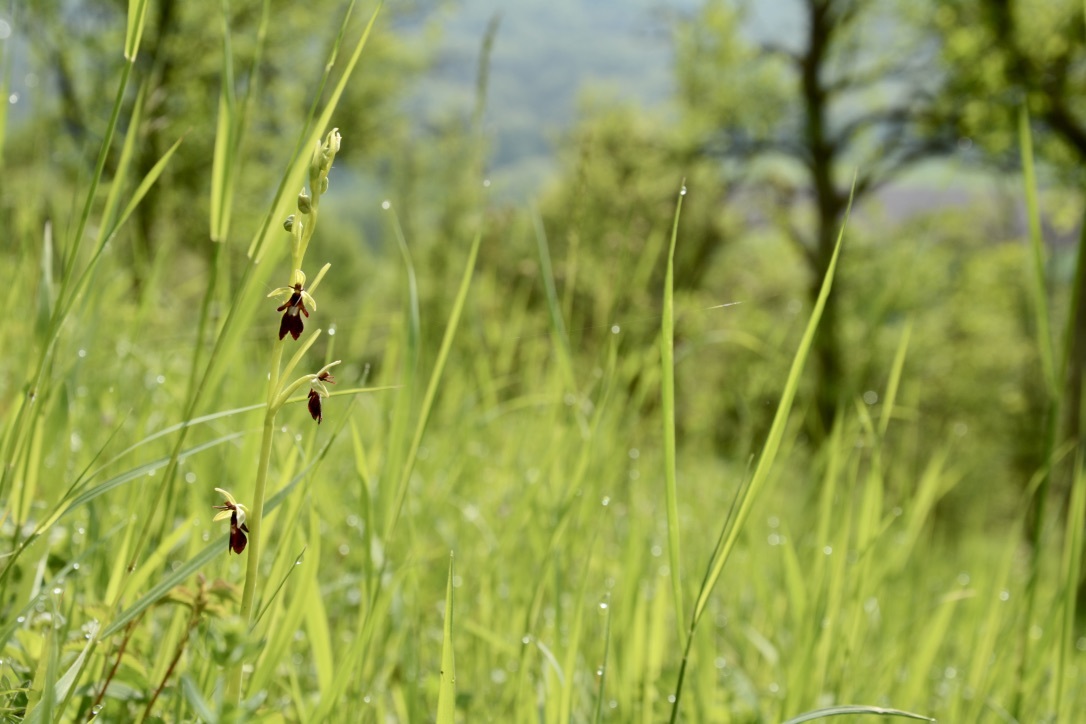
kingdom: Plantae
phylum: Tracheophyta
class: Liliopsida
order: Asparagales
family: Orchidaceae
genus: Ophrys
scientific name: Ophrys insectifera
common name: Fly orchid
